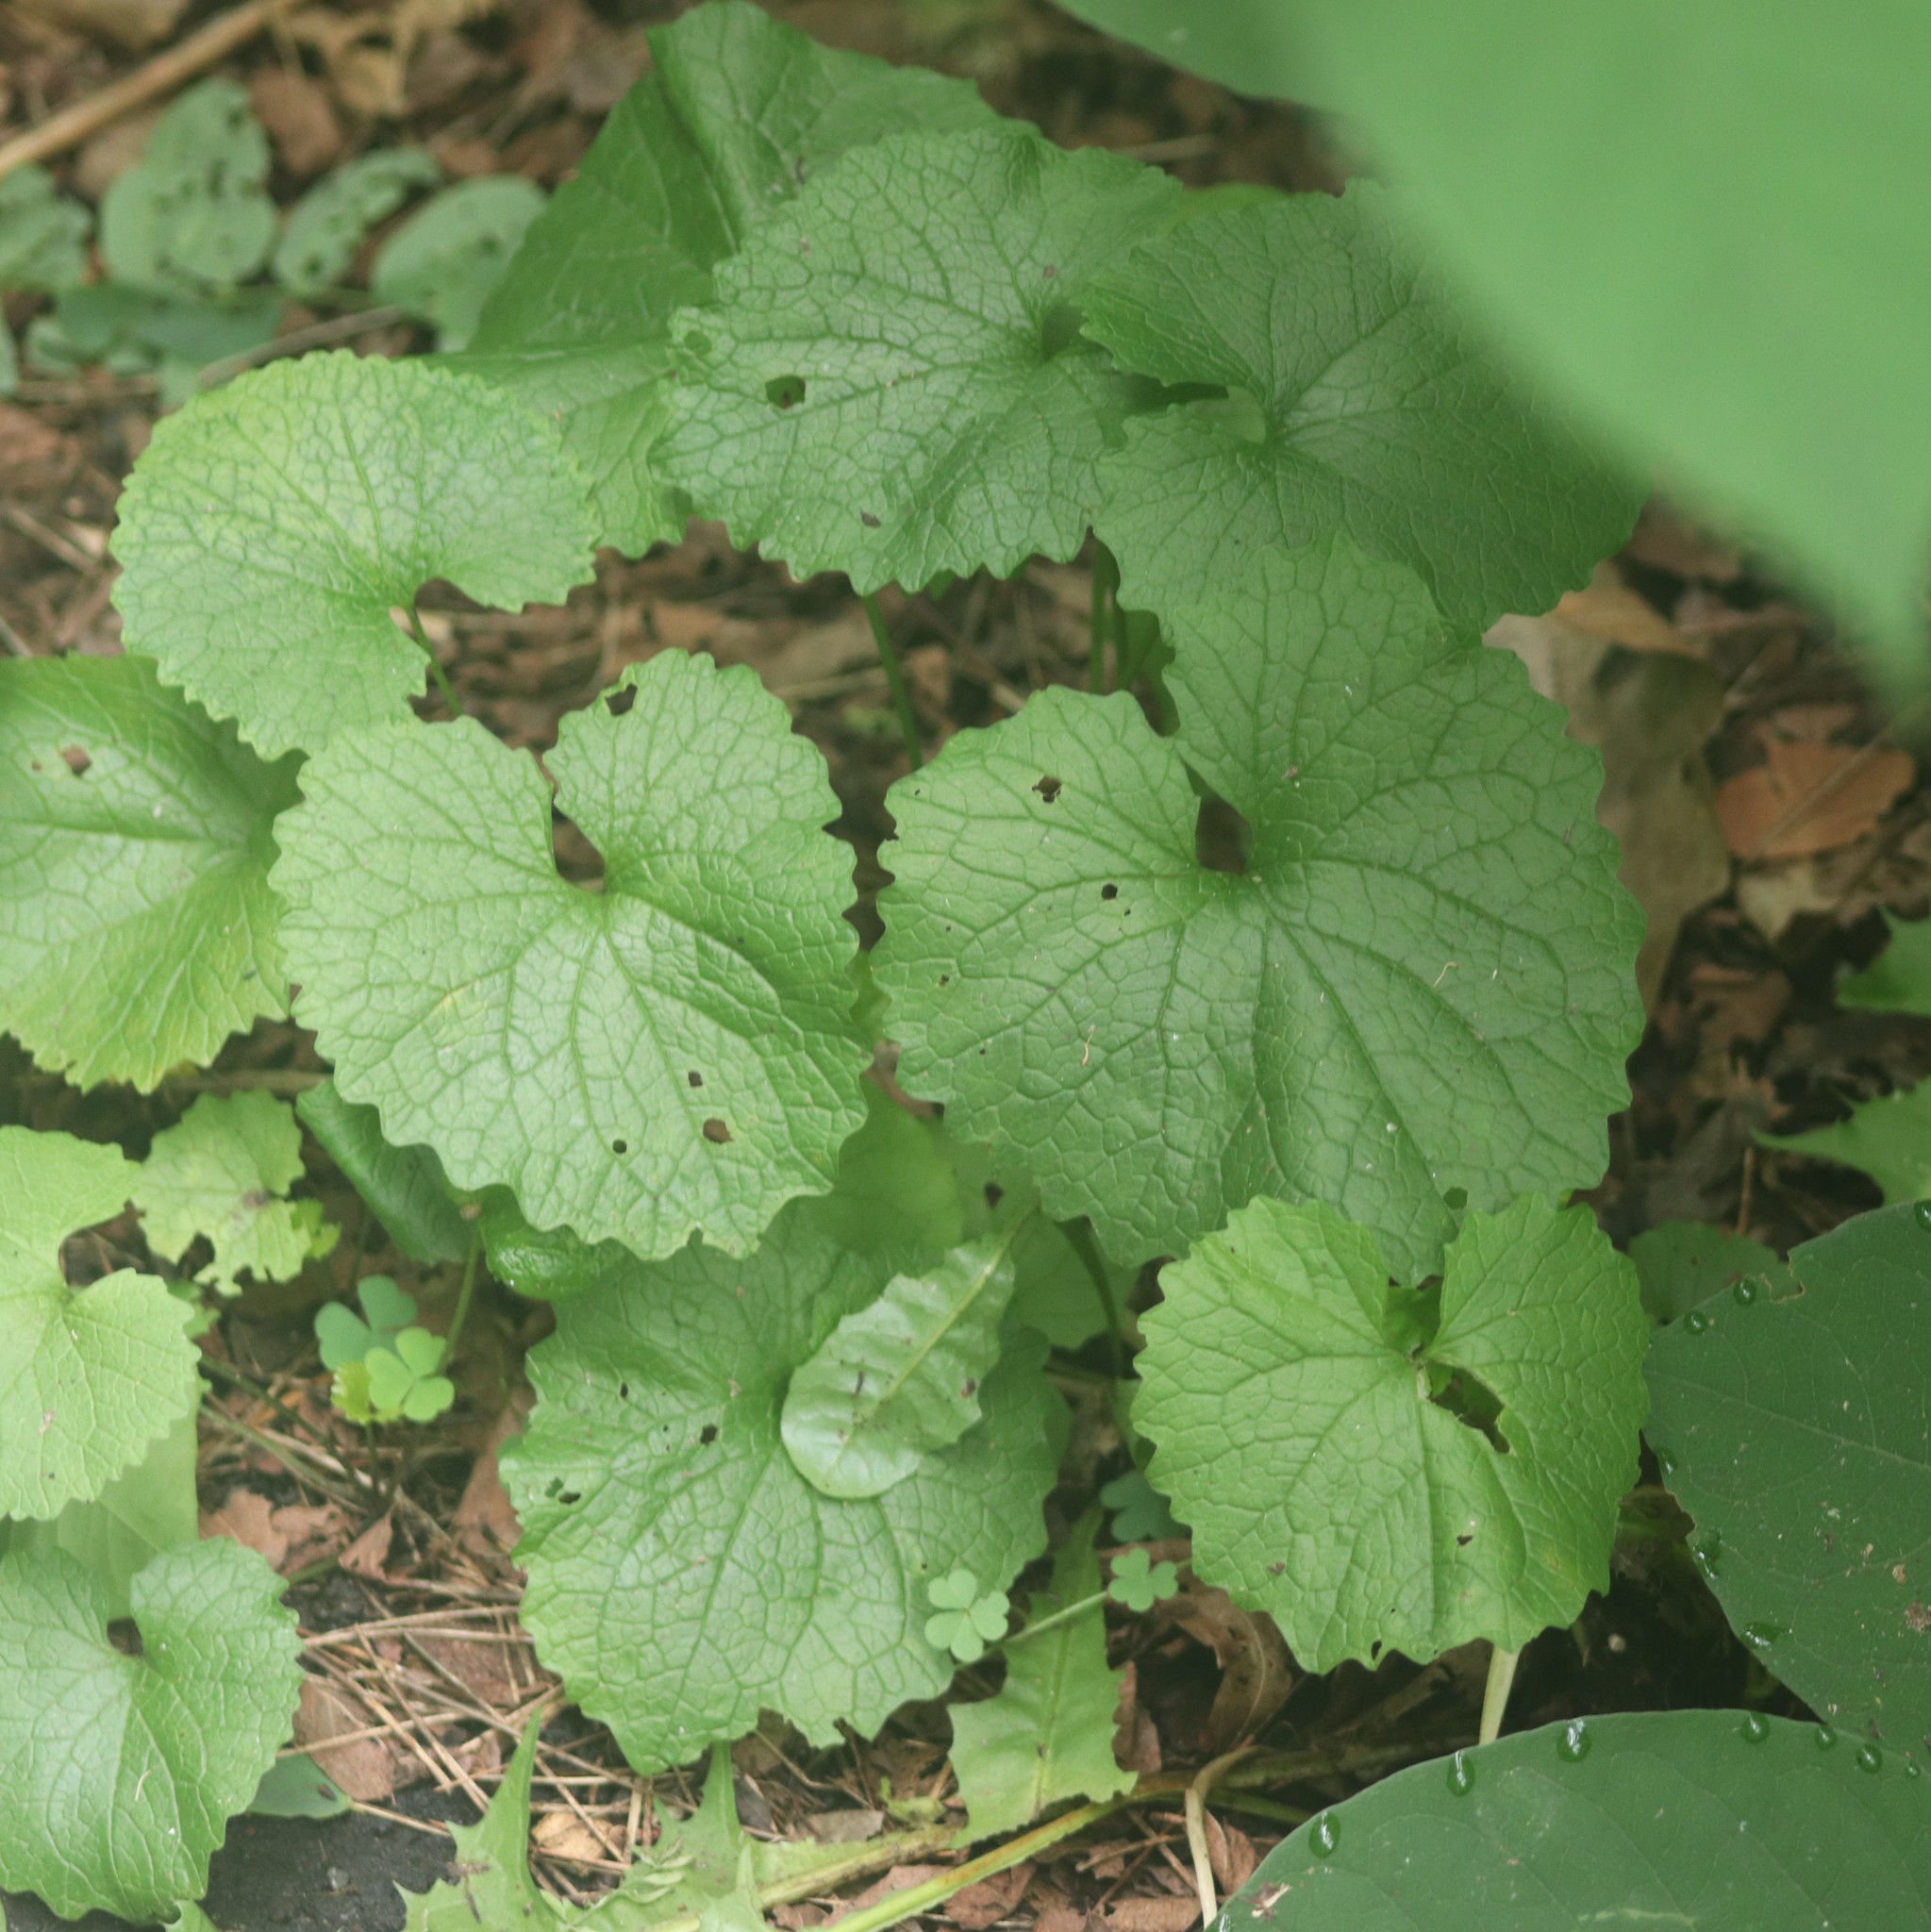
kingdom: Plantae
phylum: Tracheophyta
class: Magnoliopsida
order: Brassicales
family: Brassicaceae
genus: Alliaria
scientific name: Alliaria petiolata
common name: Garlic mustard
